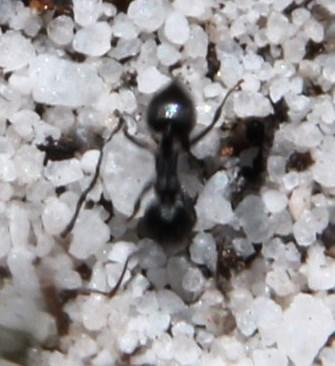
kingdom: Animalia
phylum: Arthropoda
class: Insecta
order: Hymenoptera
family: Formicidae
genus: Crematogaster
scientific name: Crematogaster peringueyi
